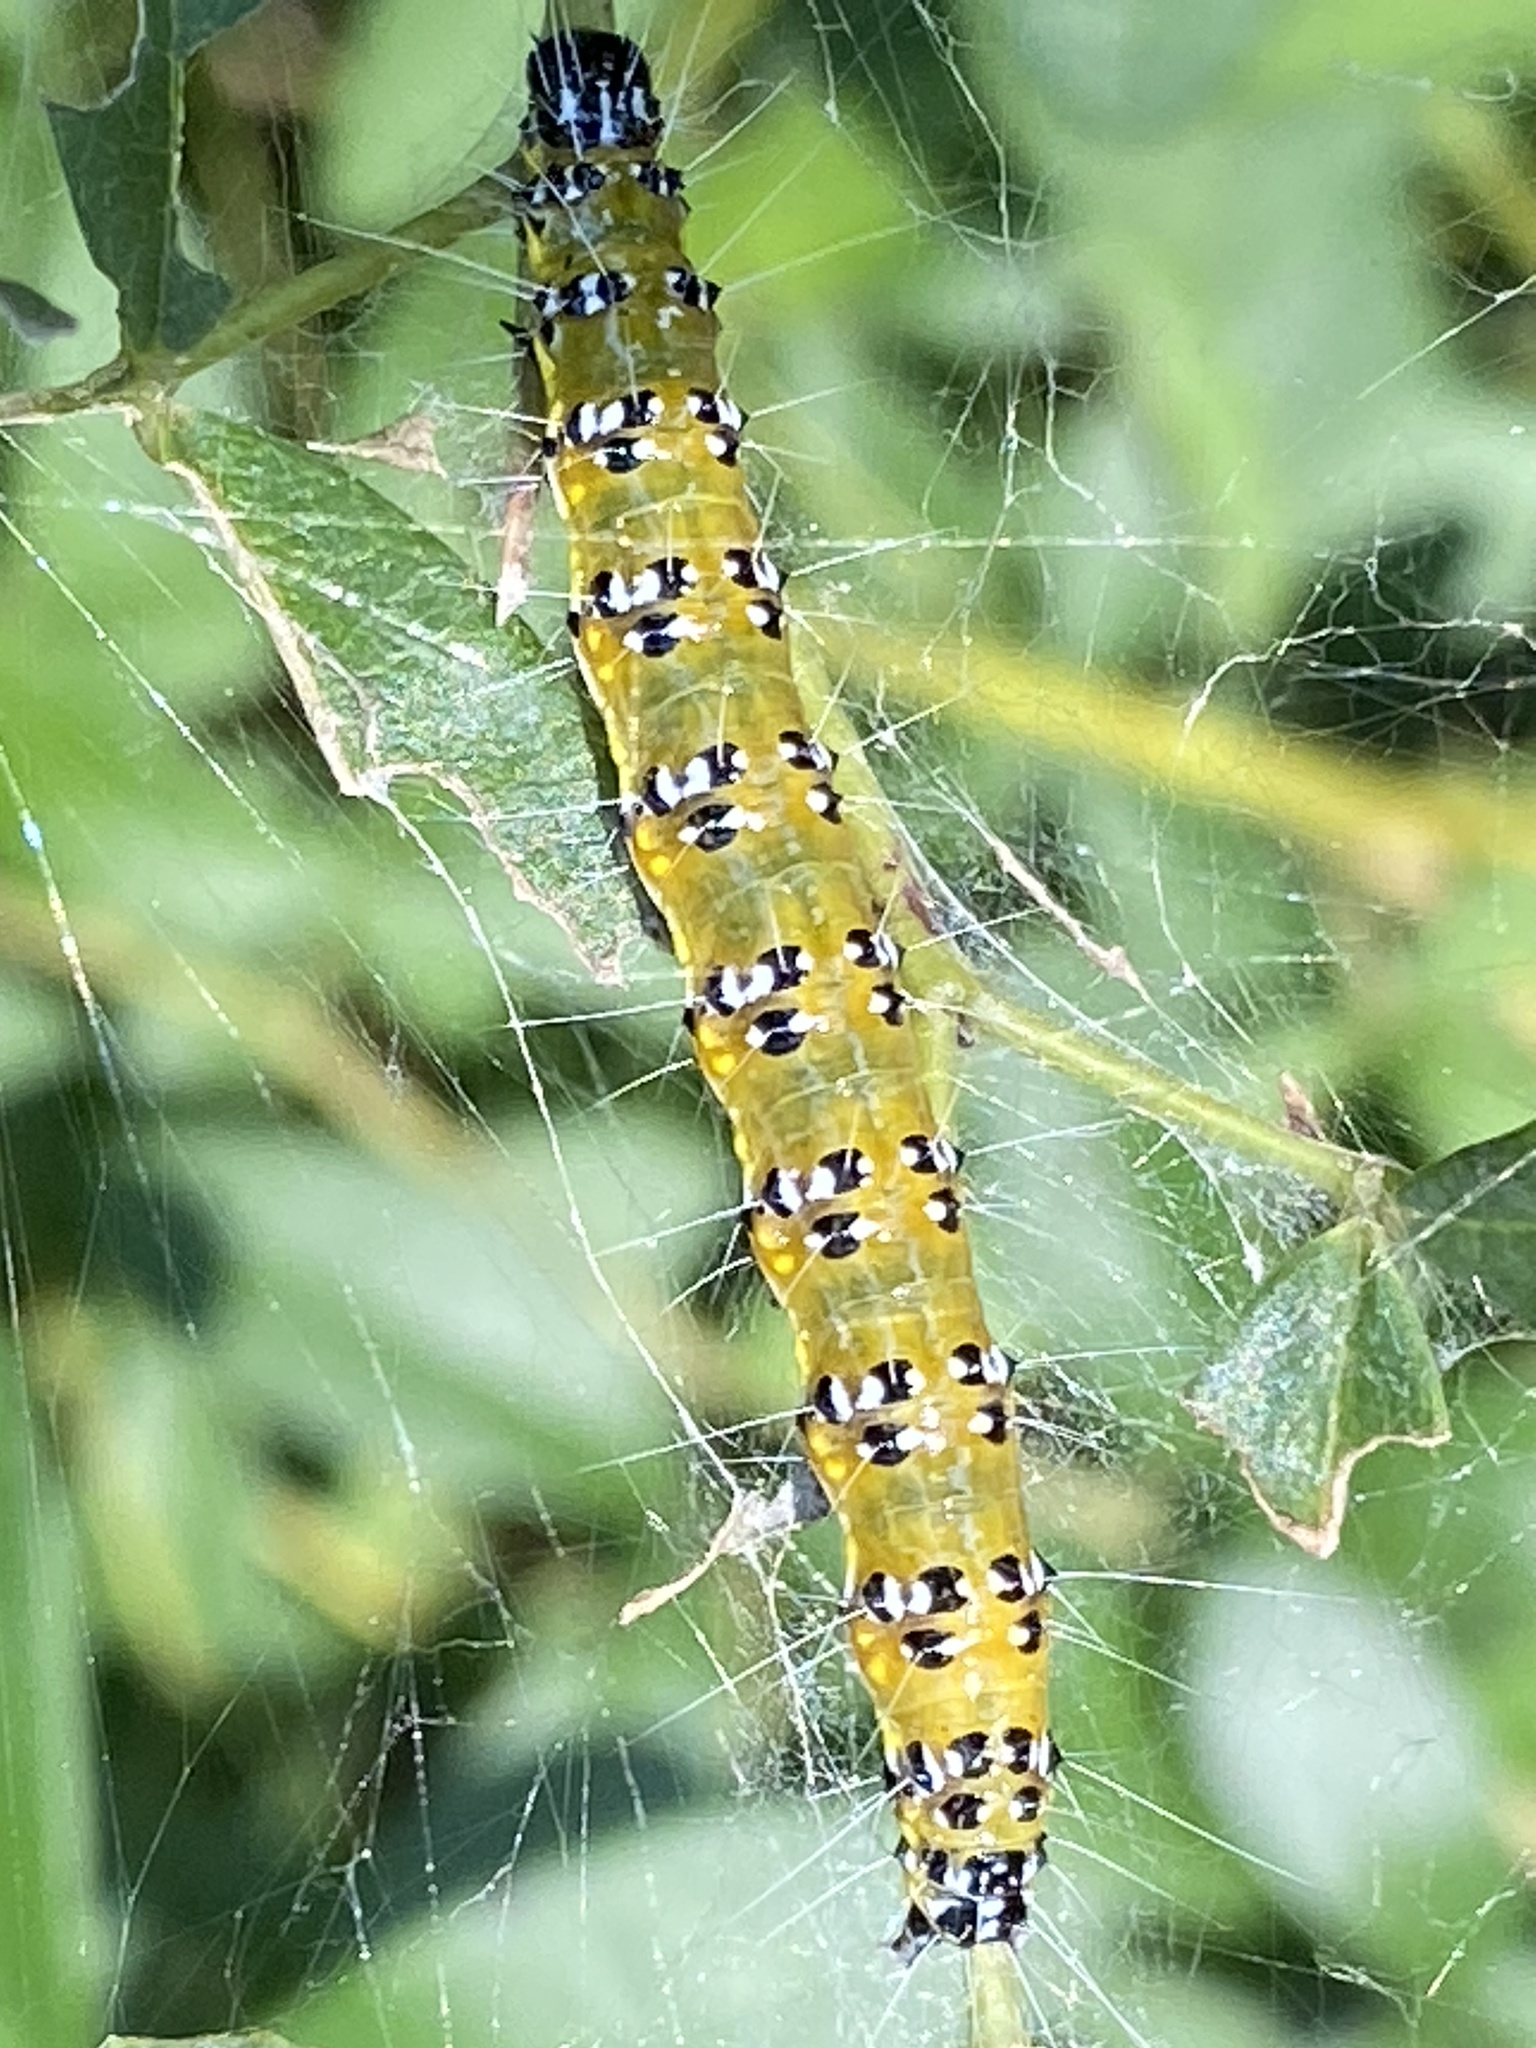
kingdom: Animalia
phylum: Arthropoda
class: Insecta
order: Lepidoptera
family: Crambidae
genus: Uresiphita
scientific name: Uresiphita reversalis
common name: Genista broom moth
